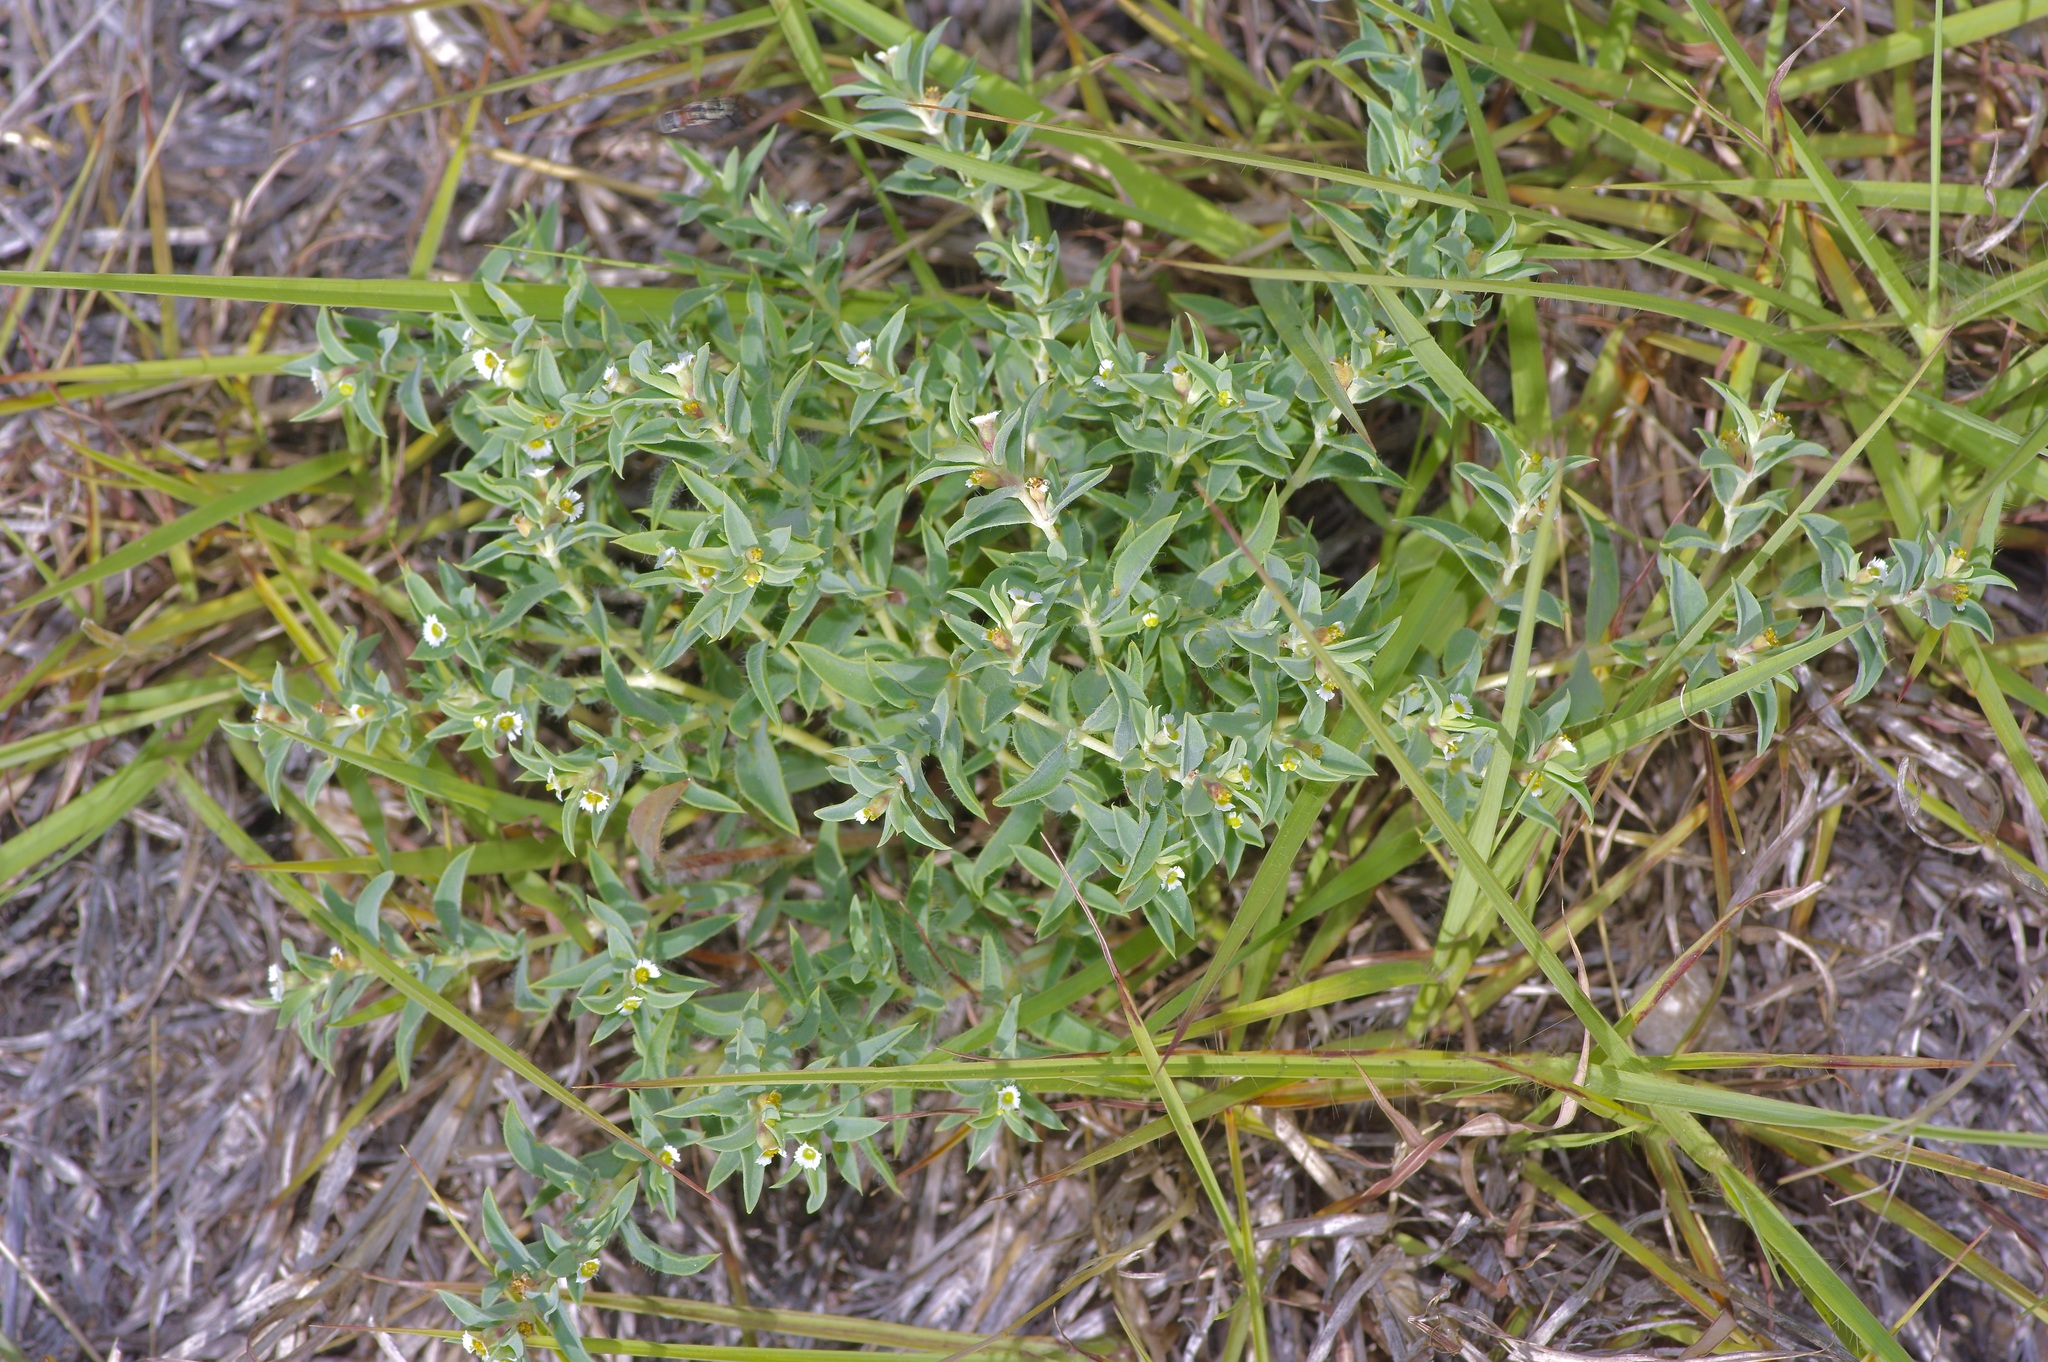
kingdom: Plantae
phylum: Tracheophyta
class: Magnoliopsida
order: Malpighiales
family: Euphorbiaceae
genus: Euphorbia
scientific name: Euphorbia acuta
